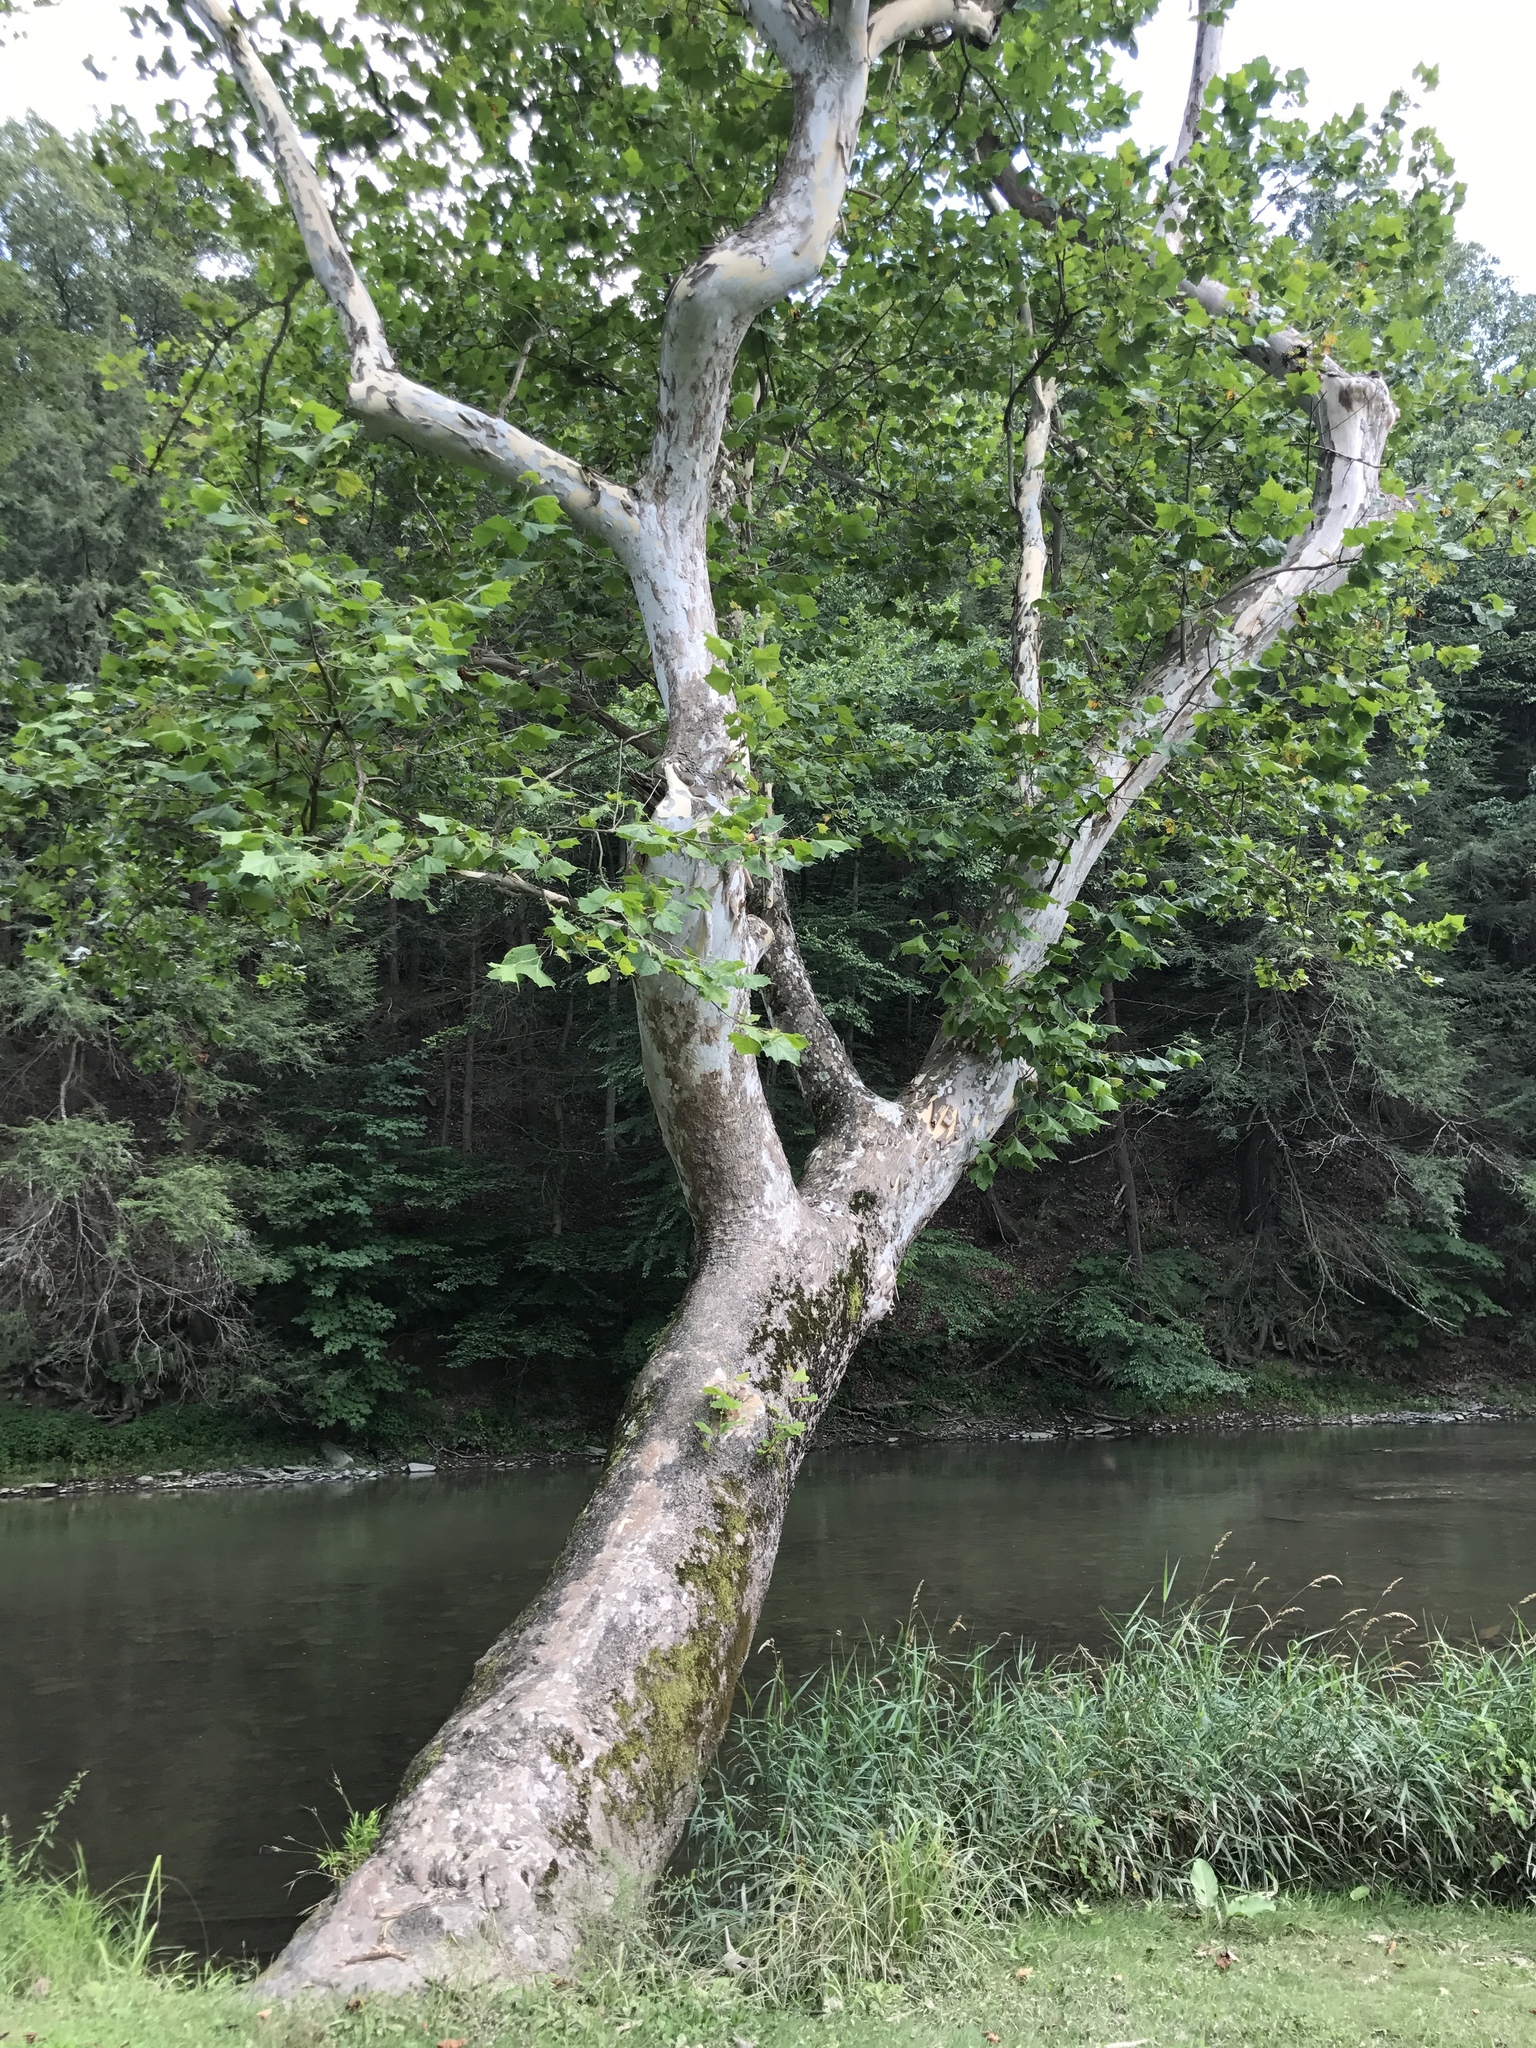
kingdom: Plantae
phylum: Tracheophyta
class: Magnoliopsida
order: Proteales
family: Platanaceae
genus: Platanus
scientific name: Platanus occidentalis
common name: American sycamore
